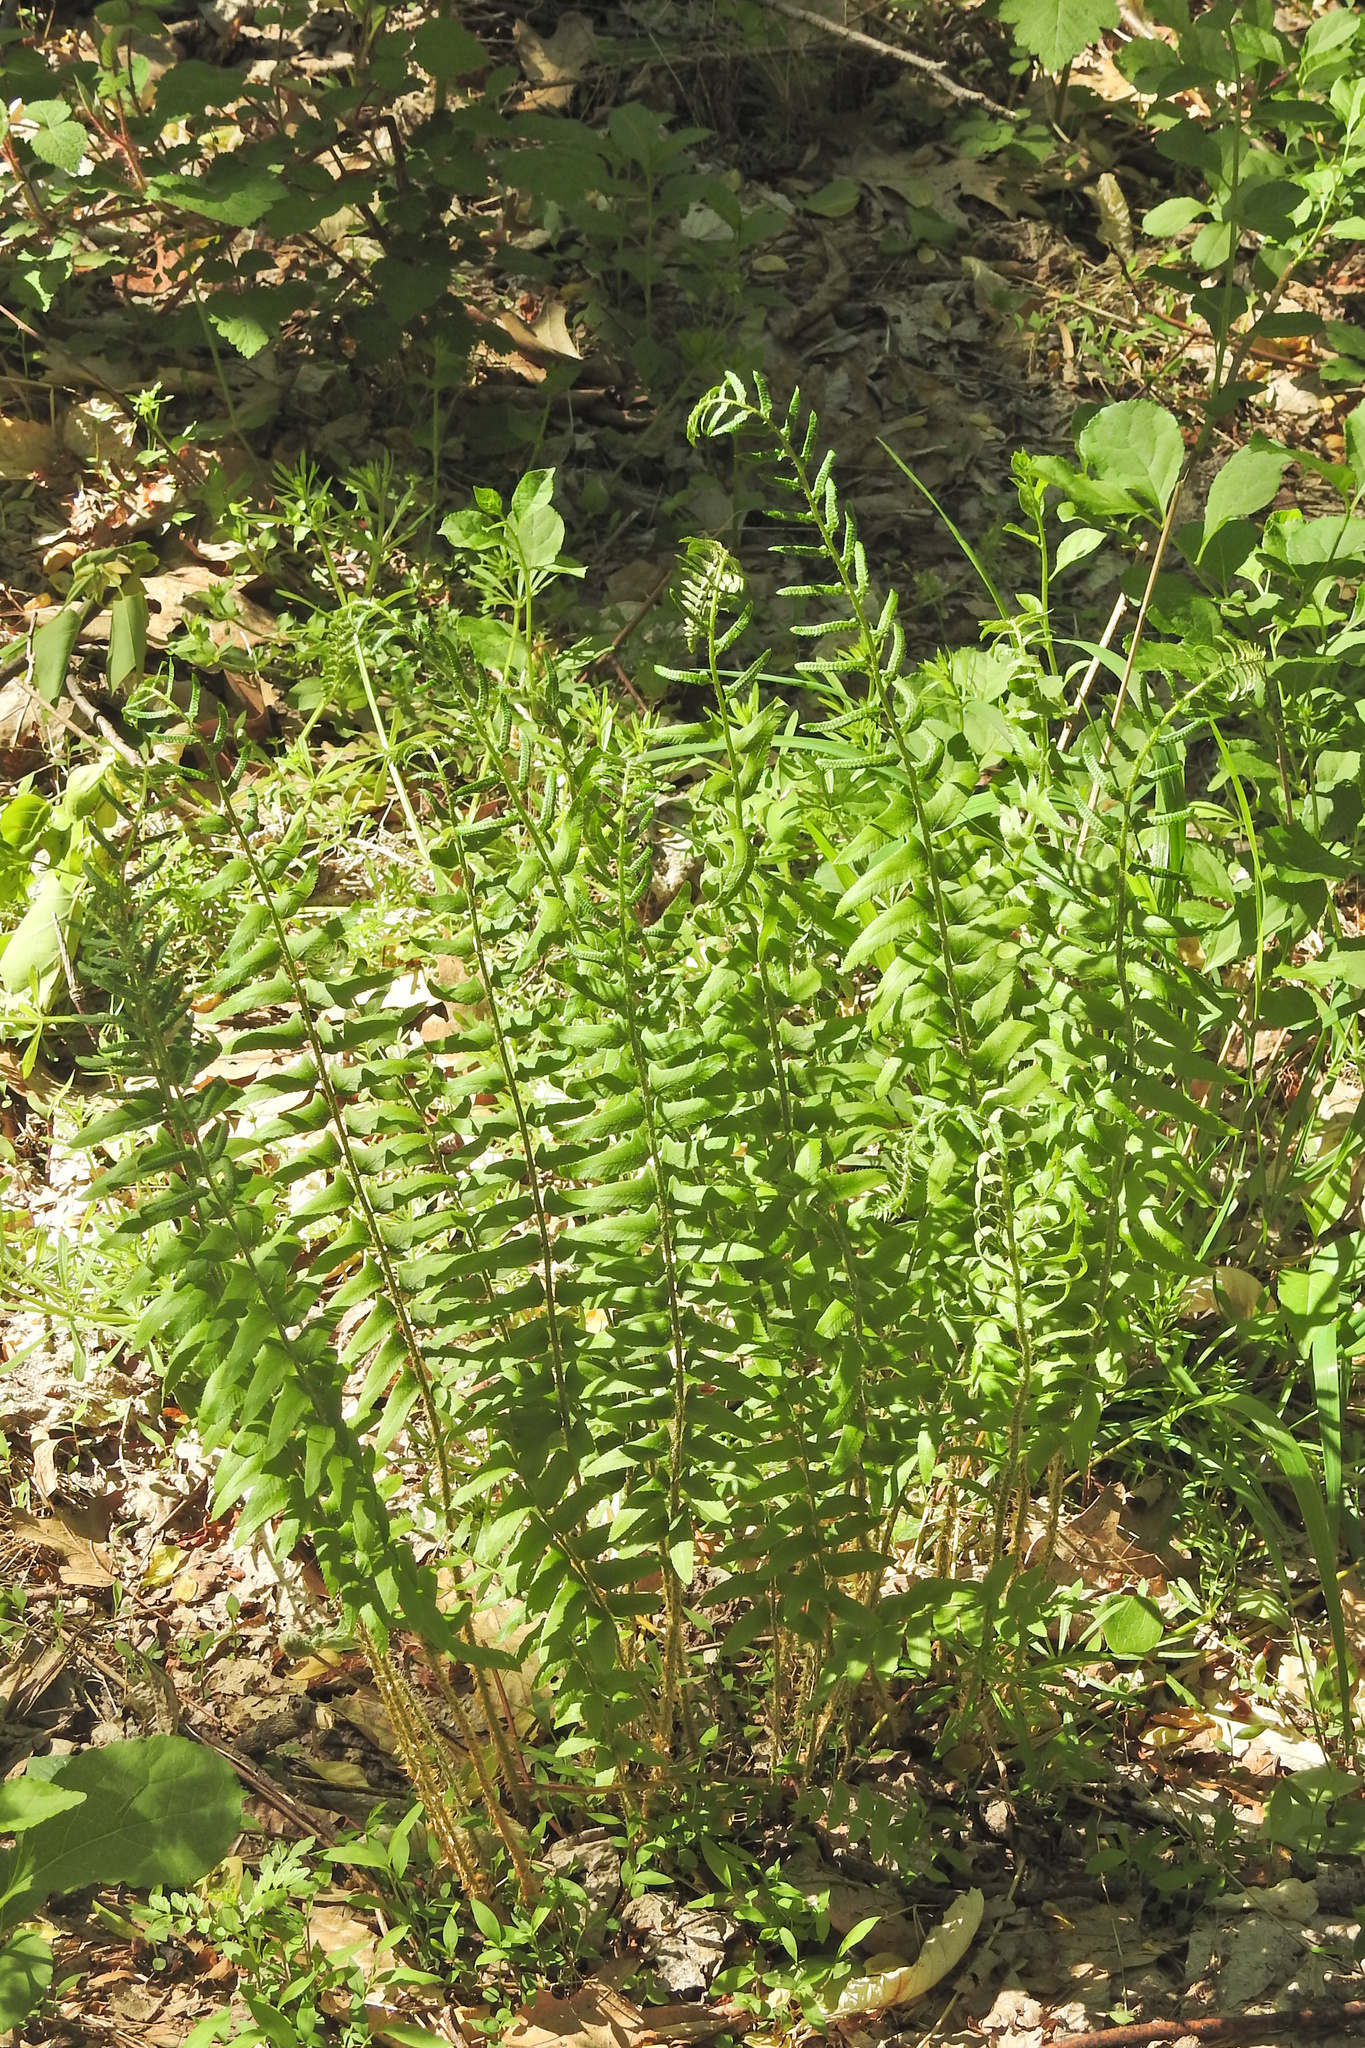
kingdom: Plantae
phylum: Tracheophyta
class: Polypodiopsida
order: Polypodiales
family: Dryopteridaceae
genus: Polystichum
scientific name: Polystichum acrostichoides
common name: Christmas fern
